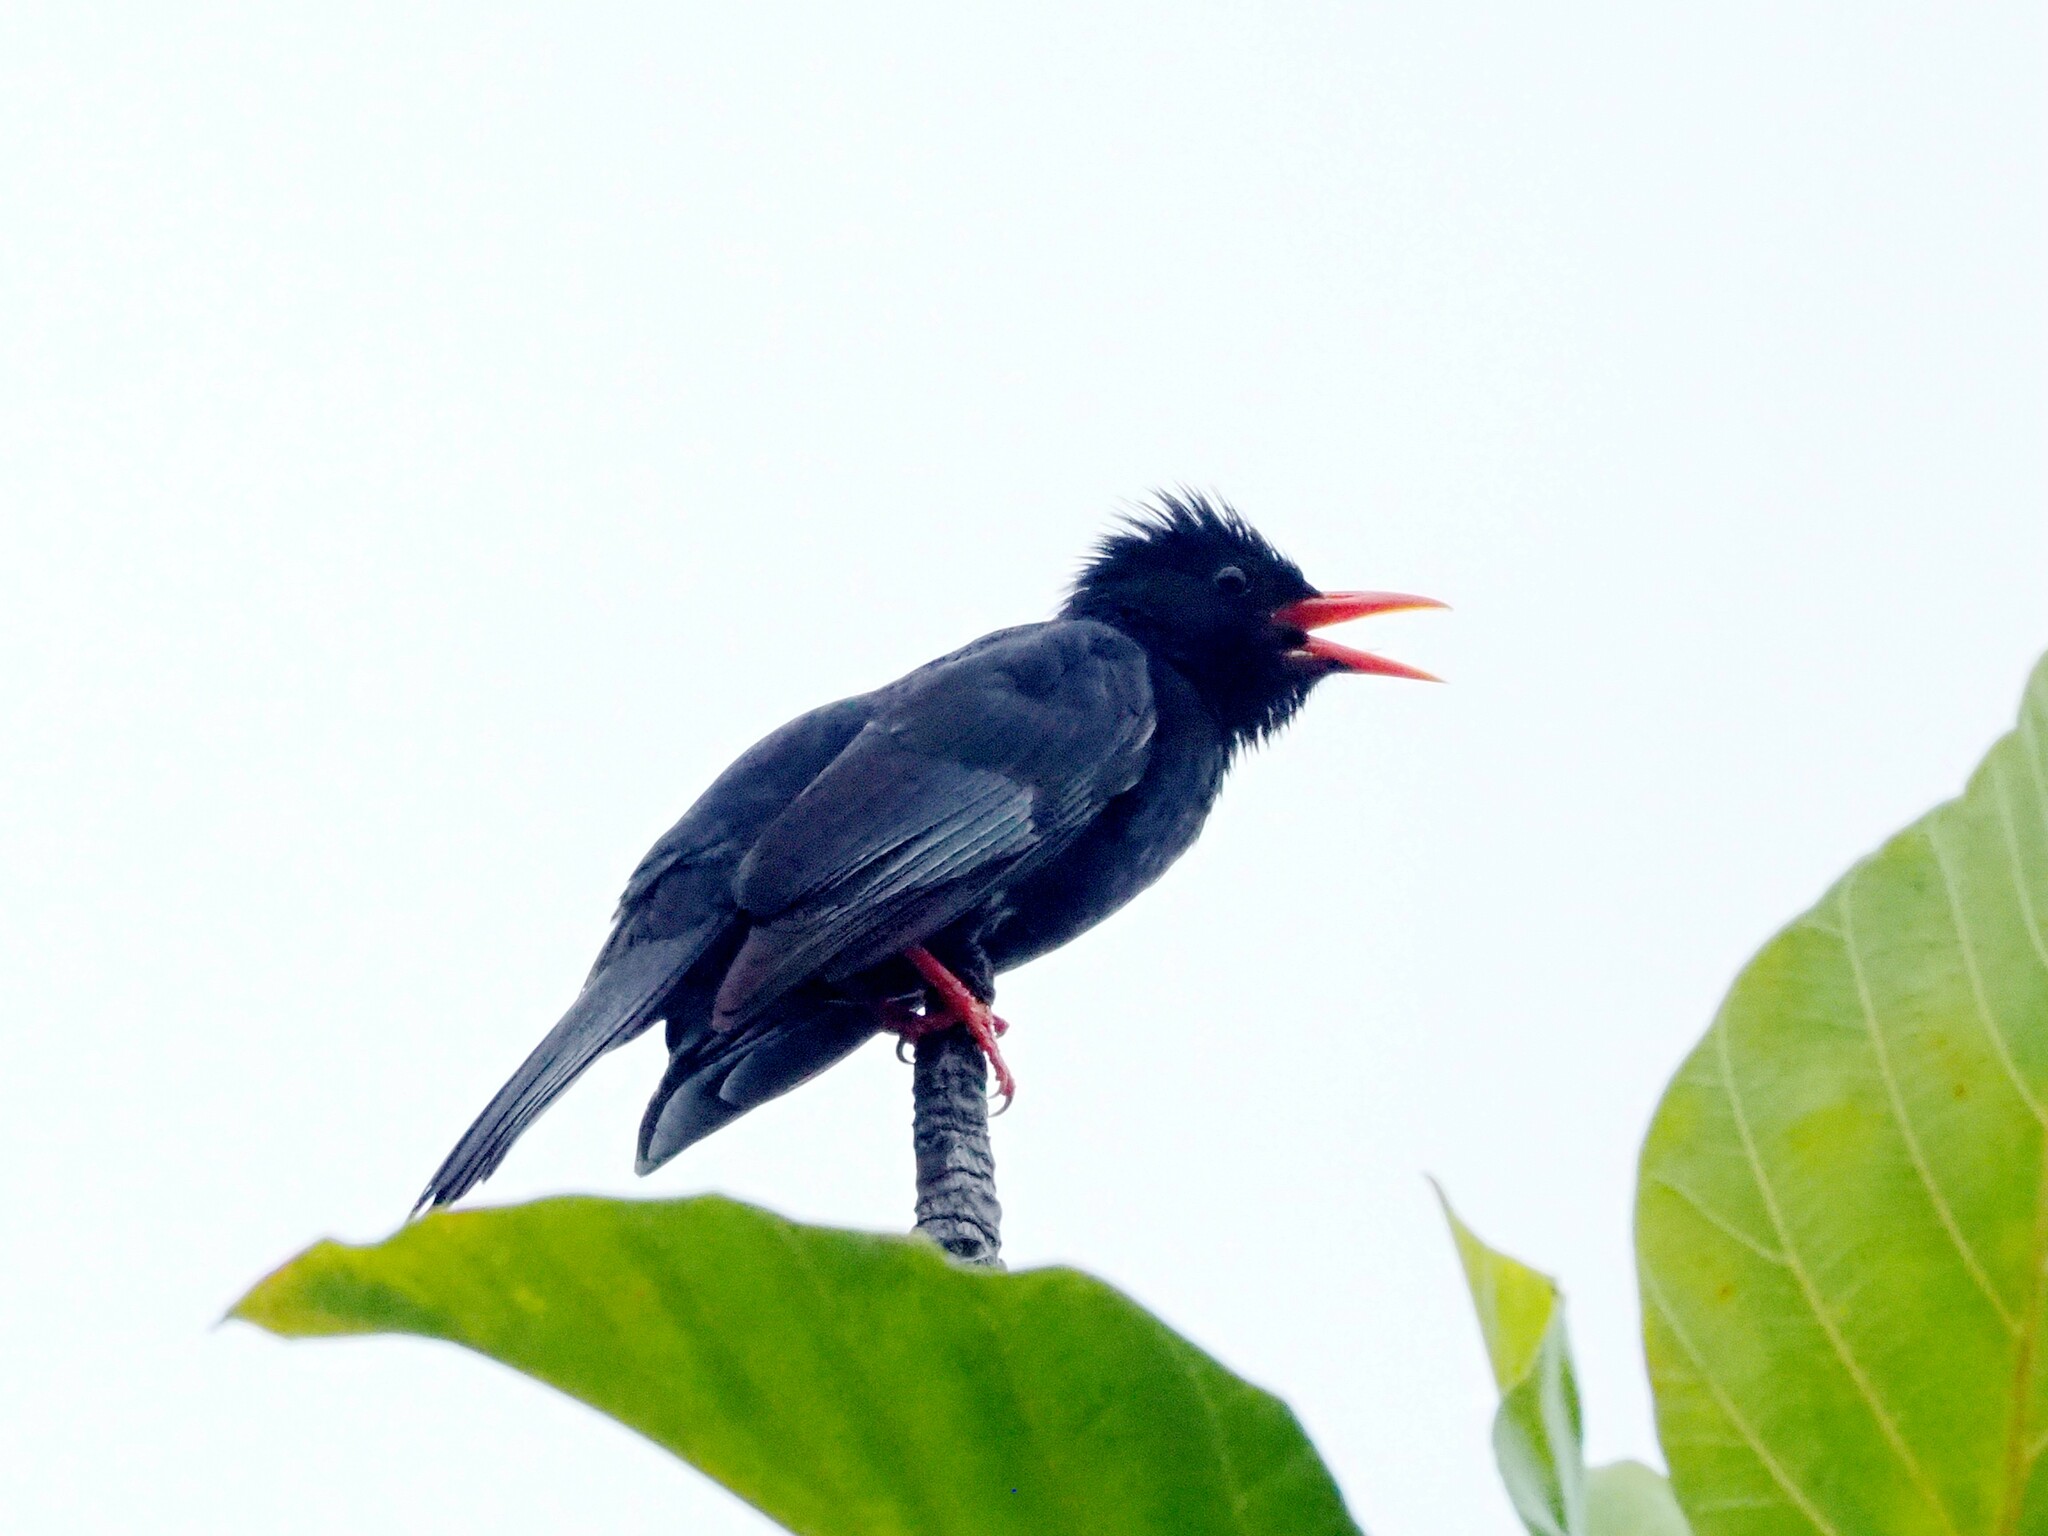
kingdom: Animalia
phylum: Chordata
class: Aves
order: Passeriformes
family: Pycnonotidae
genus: Hypsipetes
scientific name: Hypsipetes leucocephalus
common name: Black bulbul
